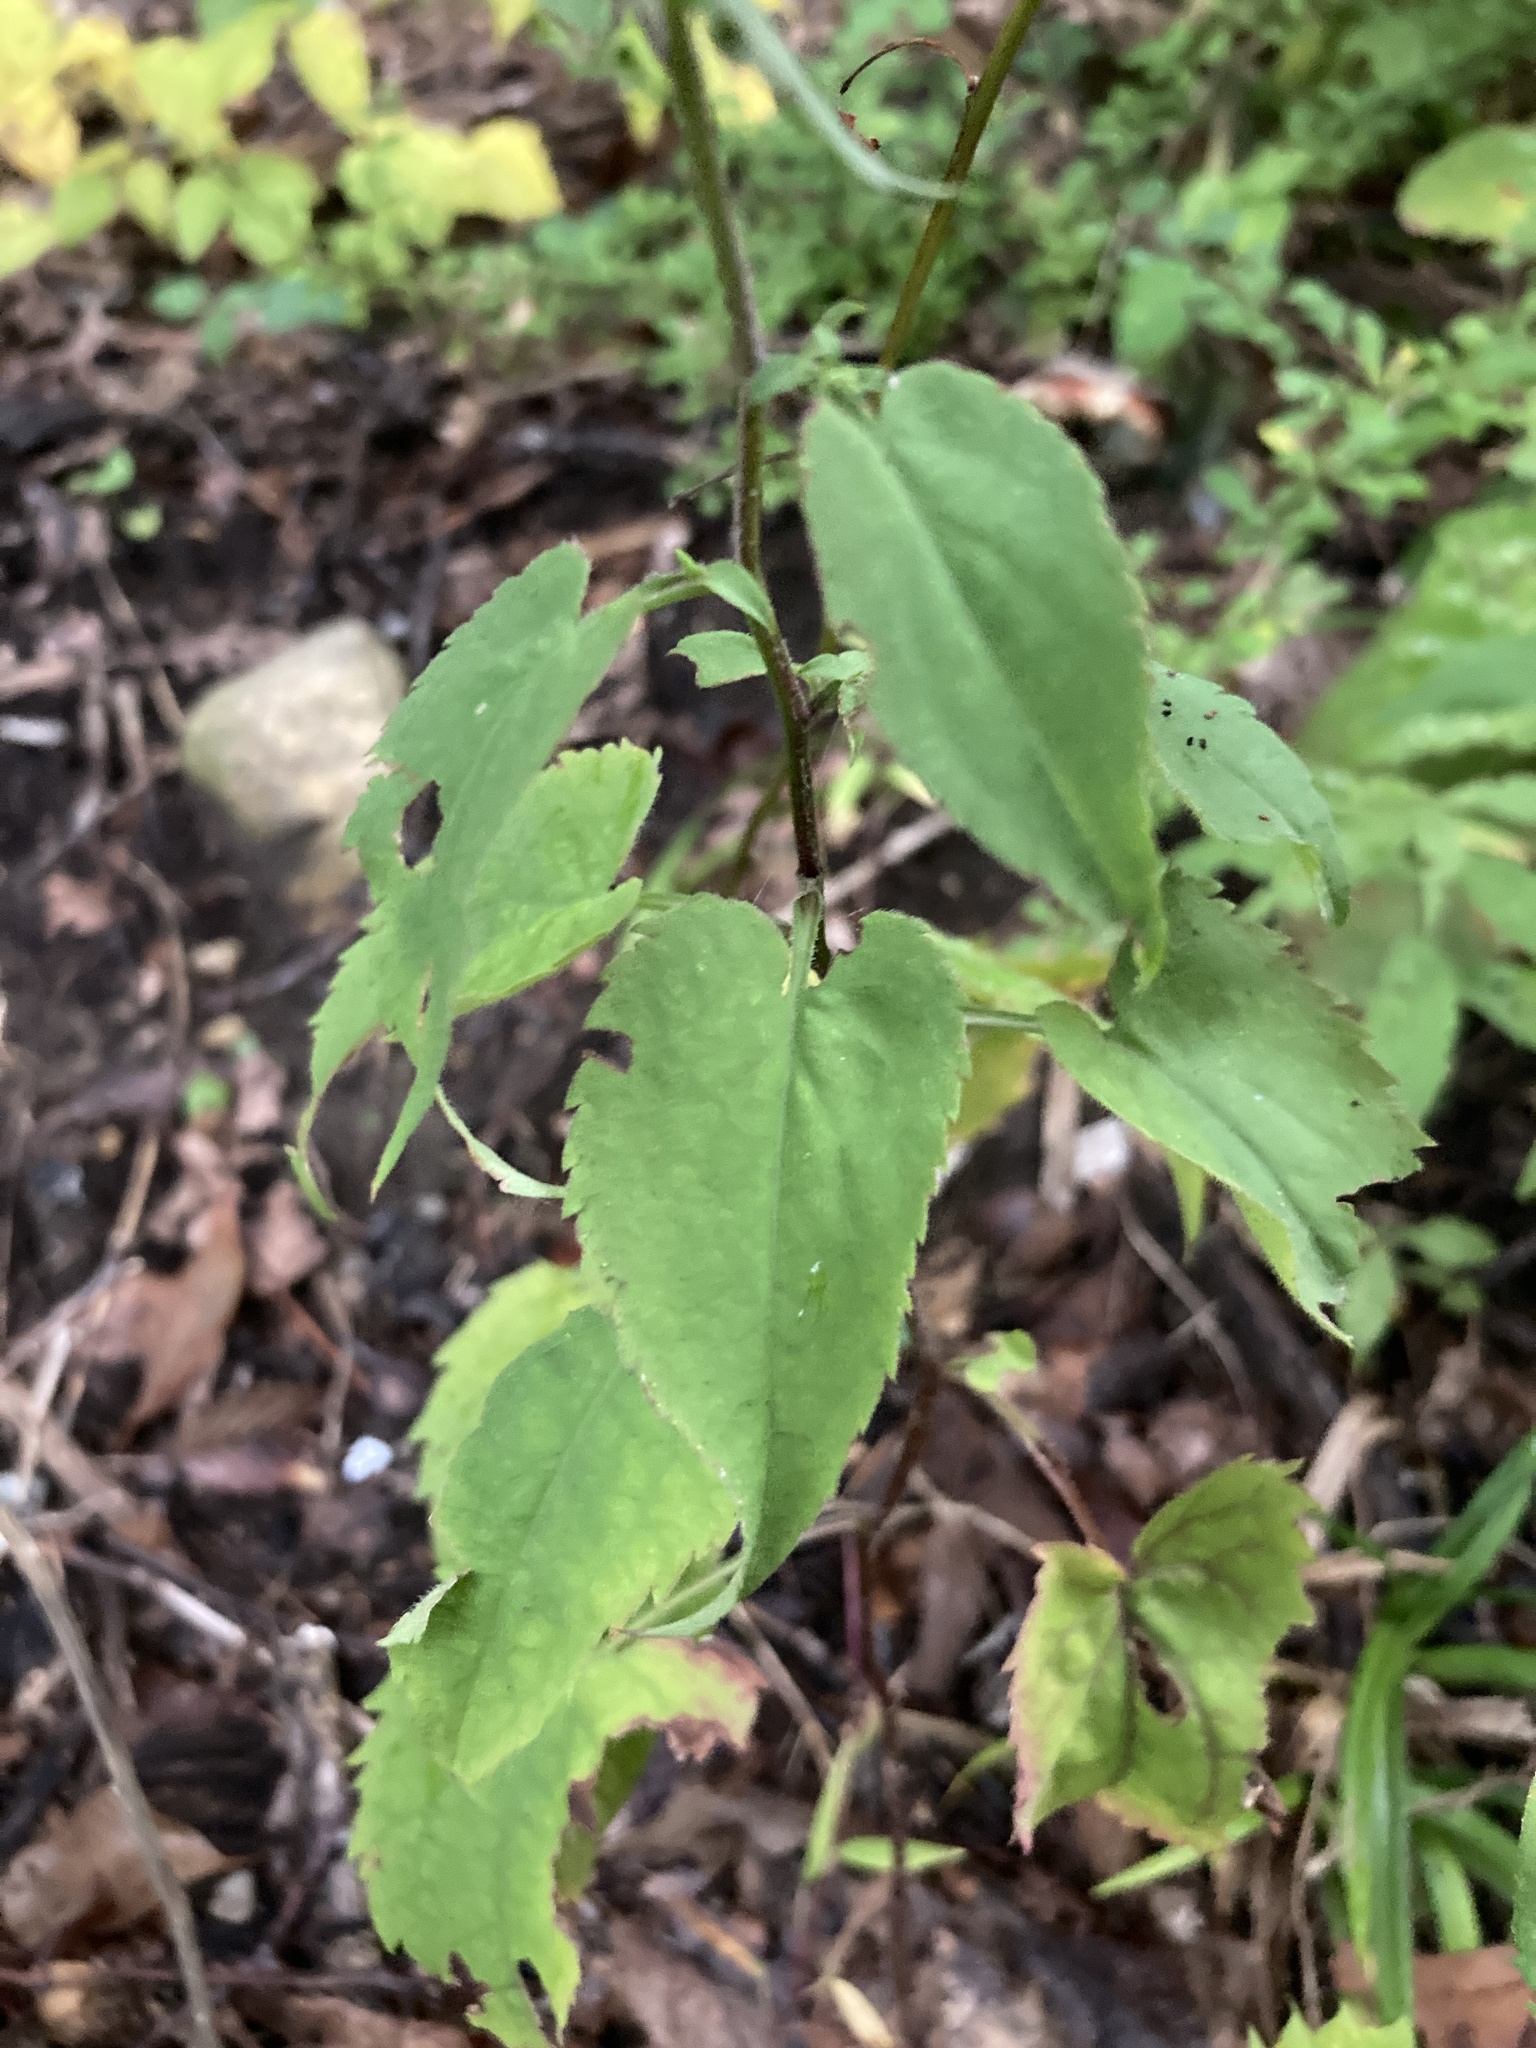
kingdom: Plantae
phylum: Tracheophyta
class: Magnoliopsida
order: Asterales
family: Asteraceae
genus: Symphyotrichum
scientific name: Symphyotrichum cordifolium
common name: Beeweed
